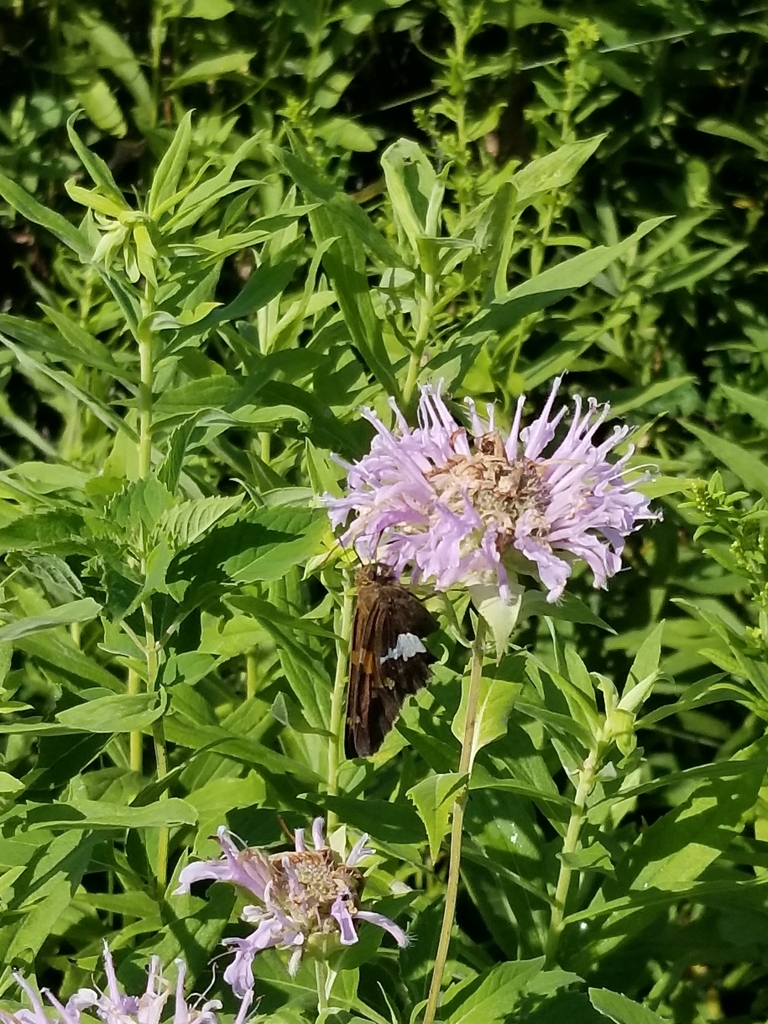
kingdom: Animalia
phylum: Arthropoda
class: Insecta
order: Lepidoptera
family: Hesperiidae
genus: Epargyreus
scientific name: Epargyreus clarus
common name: Silver-spotted skipper
